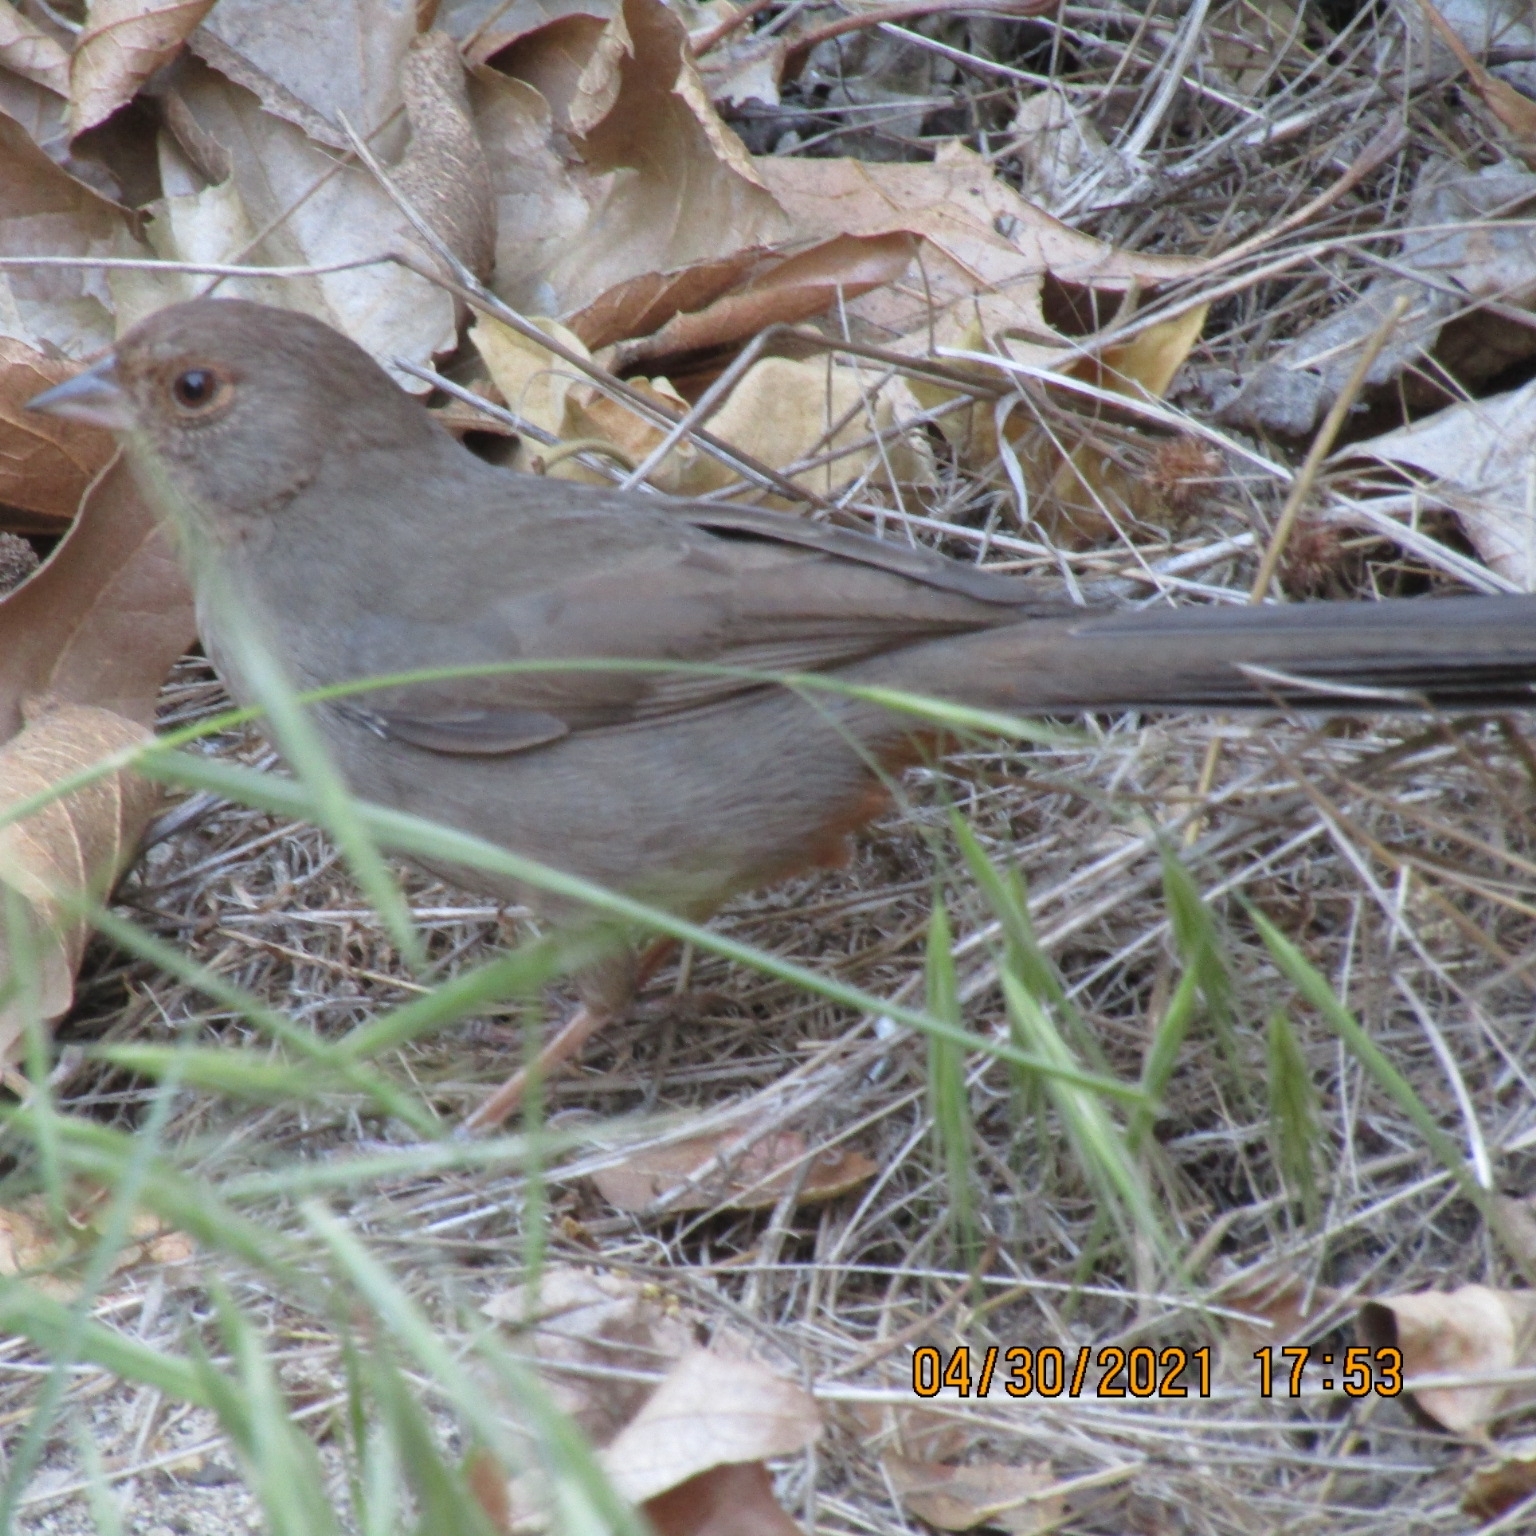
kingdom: Animalia
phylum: Chordata
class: Aves
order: Passeriformes
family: Passerellidae
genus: Melozone
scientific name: Melozone crissalis
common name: California towhee
